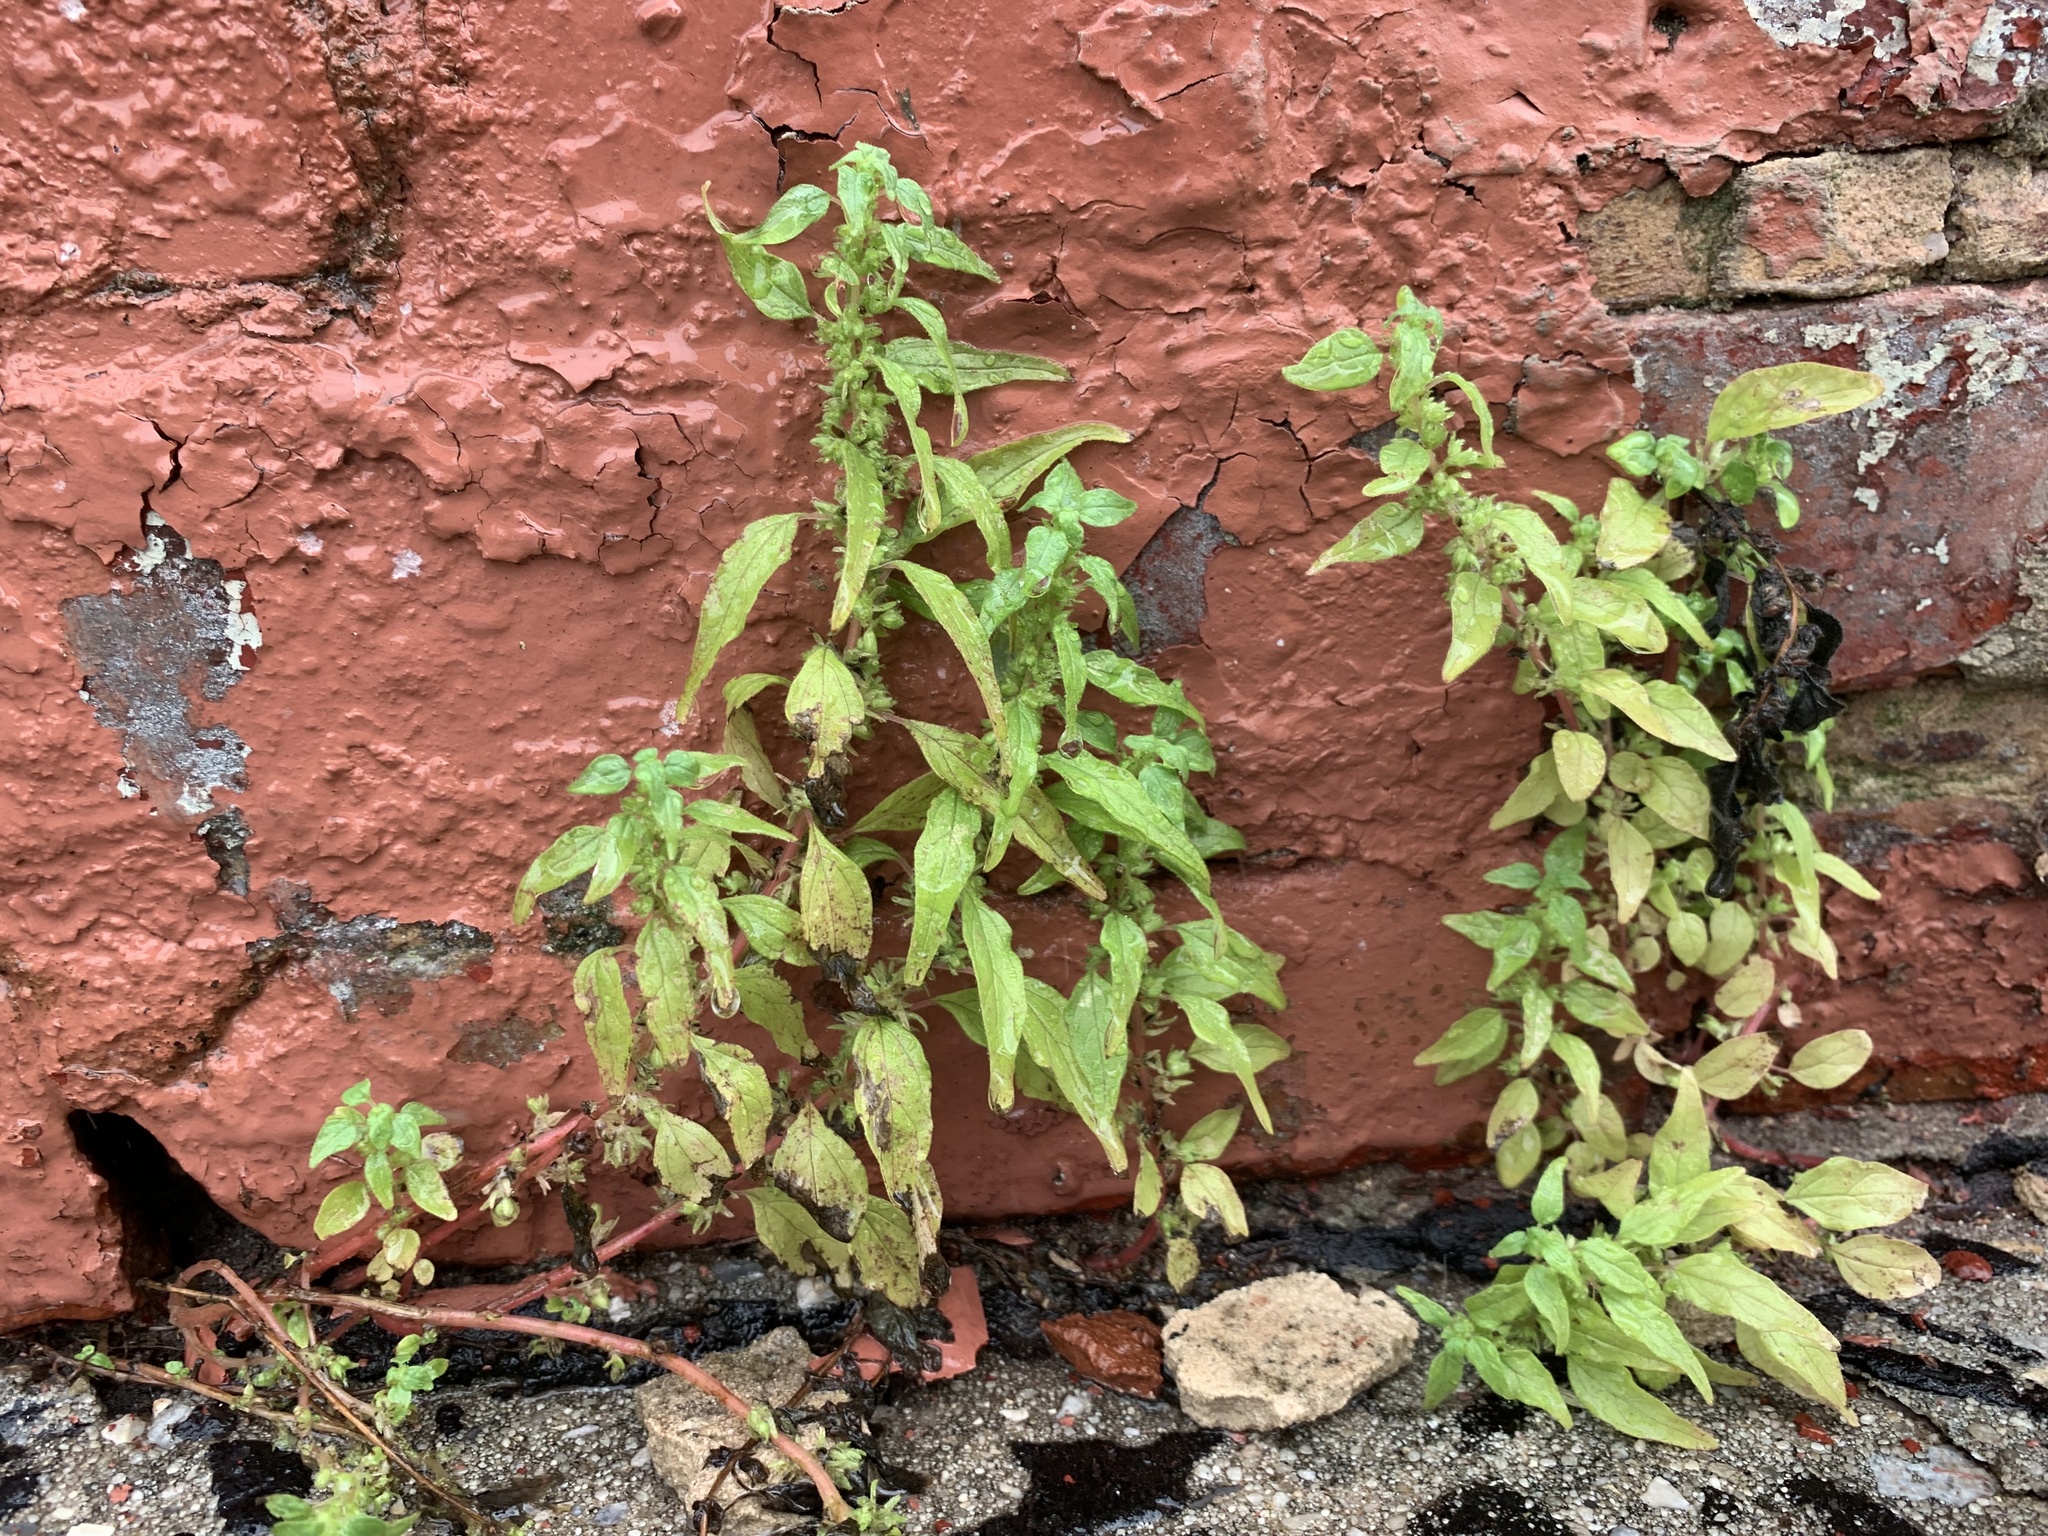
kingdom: Plantae
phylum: Tracheophyta
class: Magnoliopsida
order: Rosales
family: Urticaceae
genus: Parietaria
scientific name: Parietaria pensylvanica
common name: Pennsylvania pellitory
